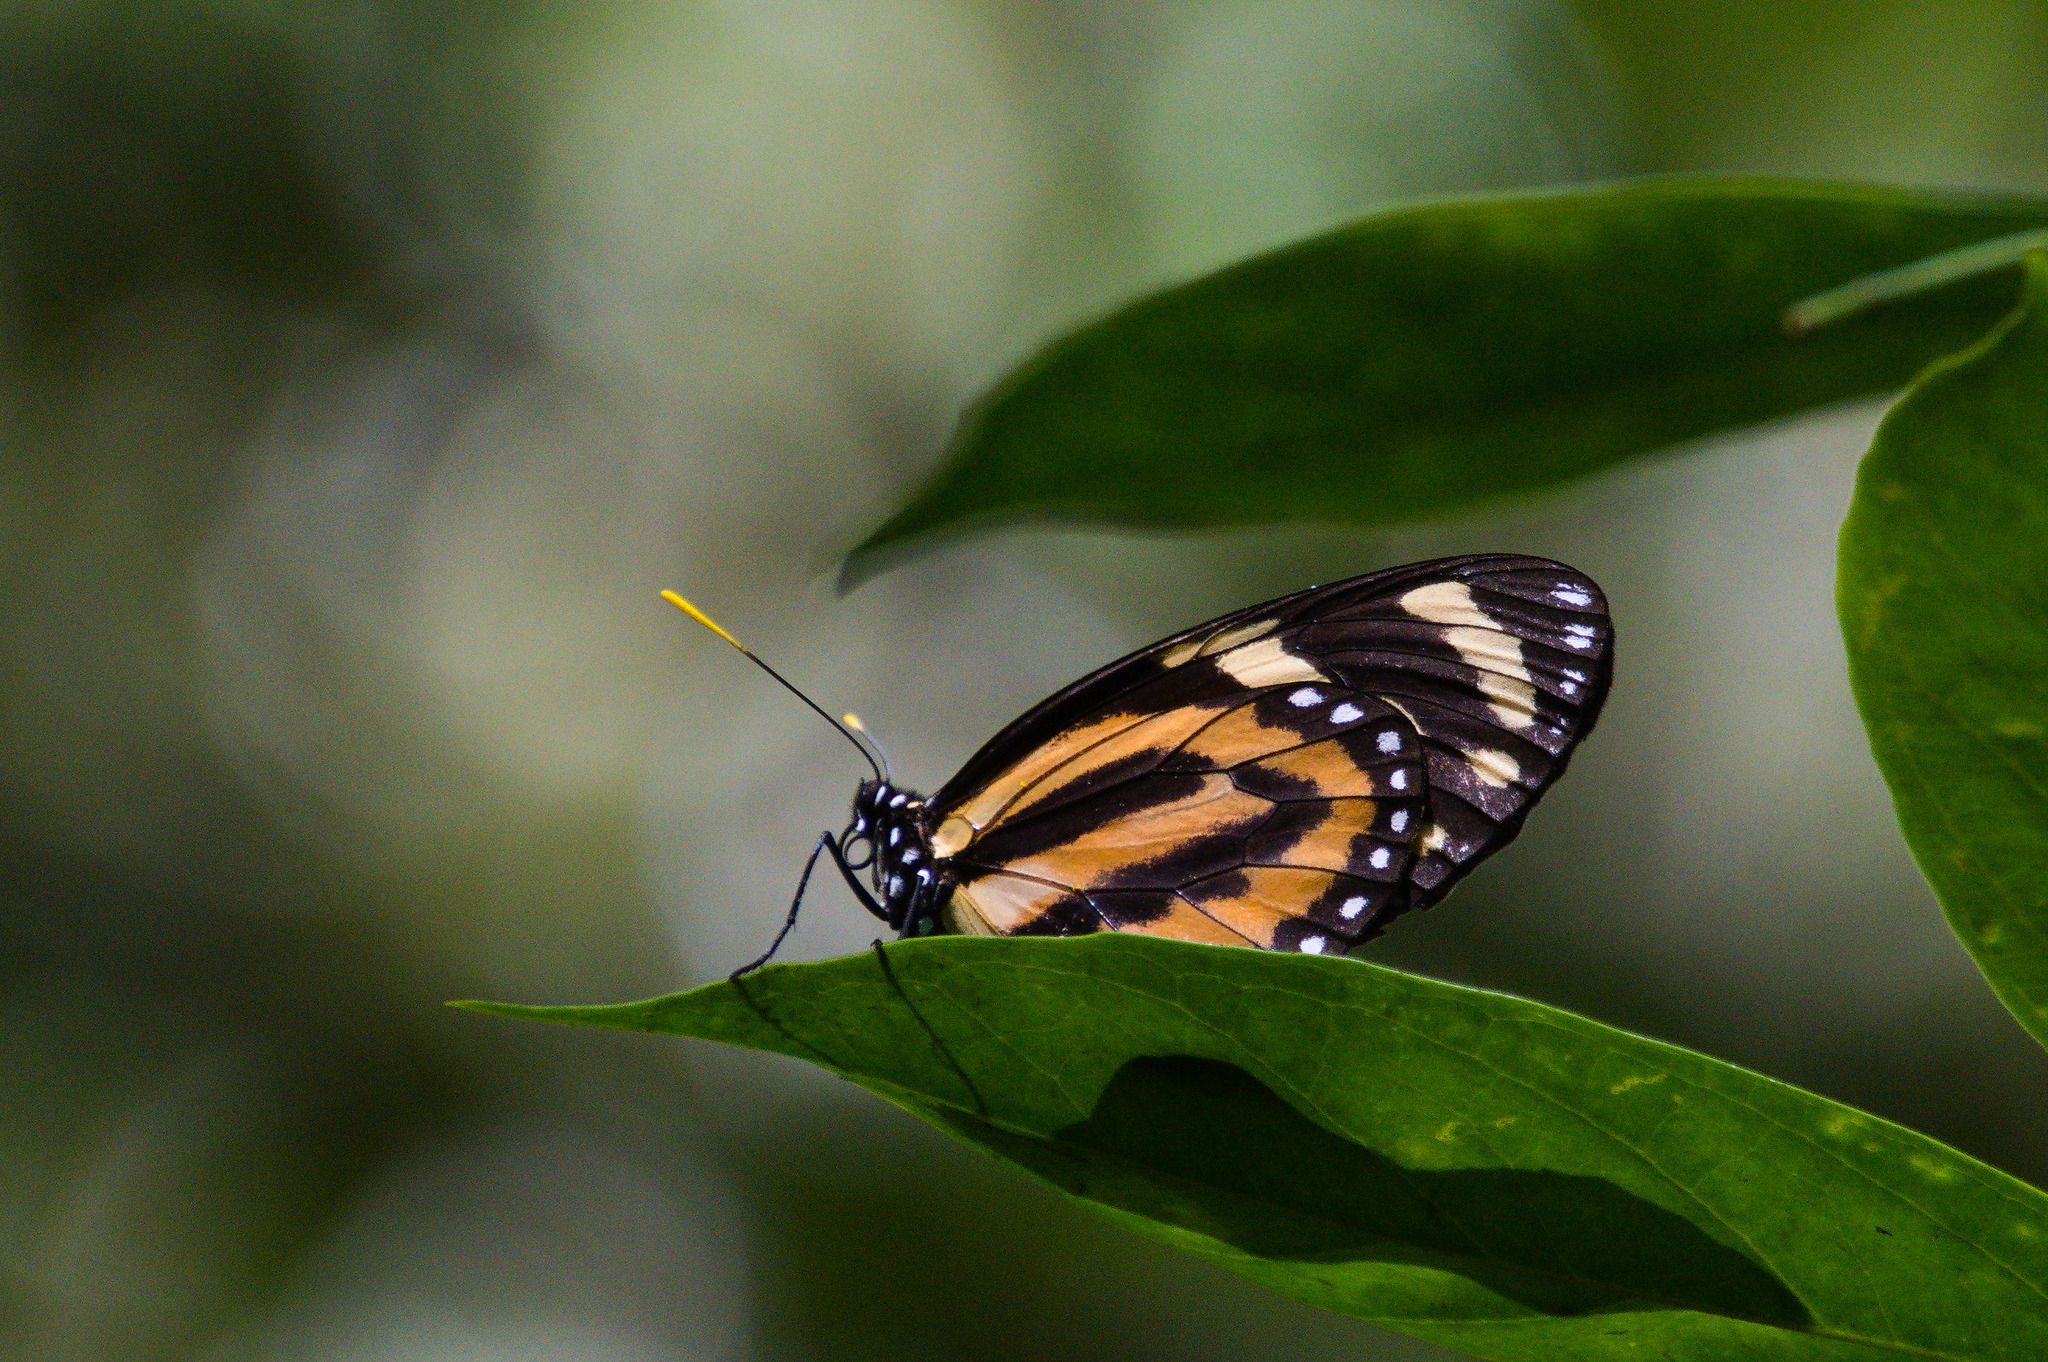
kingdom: Animalia
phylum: Arthropoda
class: Insecta
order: Lepidoptera
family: Nymphalidae
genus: Lycorea
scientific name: Lycorea cleobaea
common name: Tiger mimic-queen
